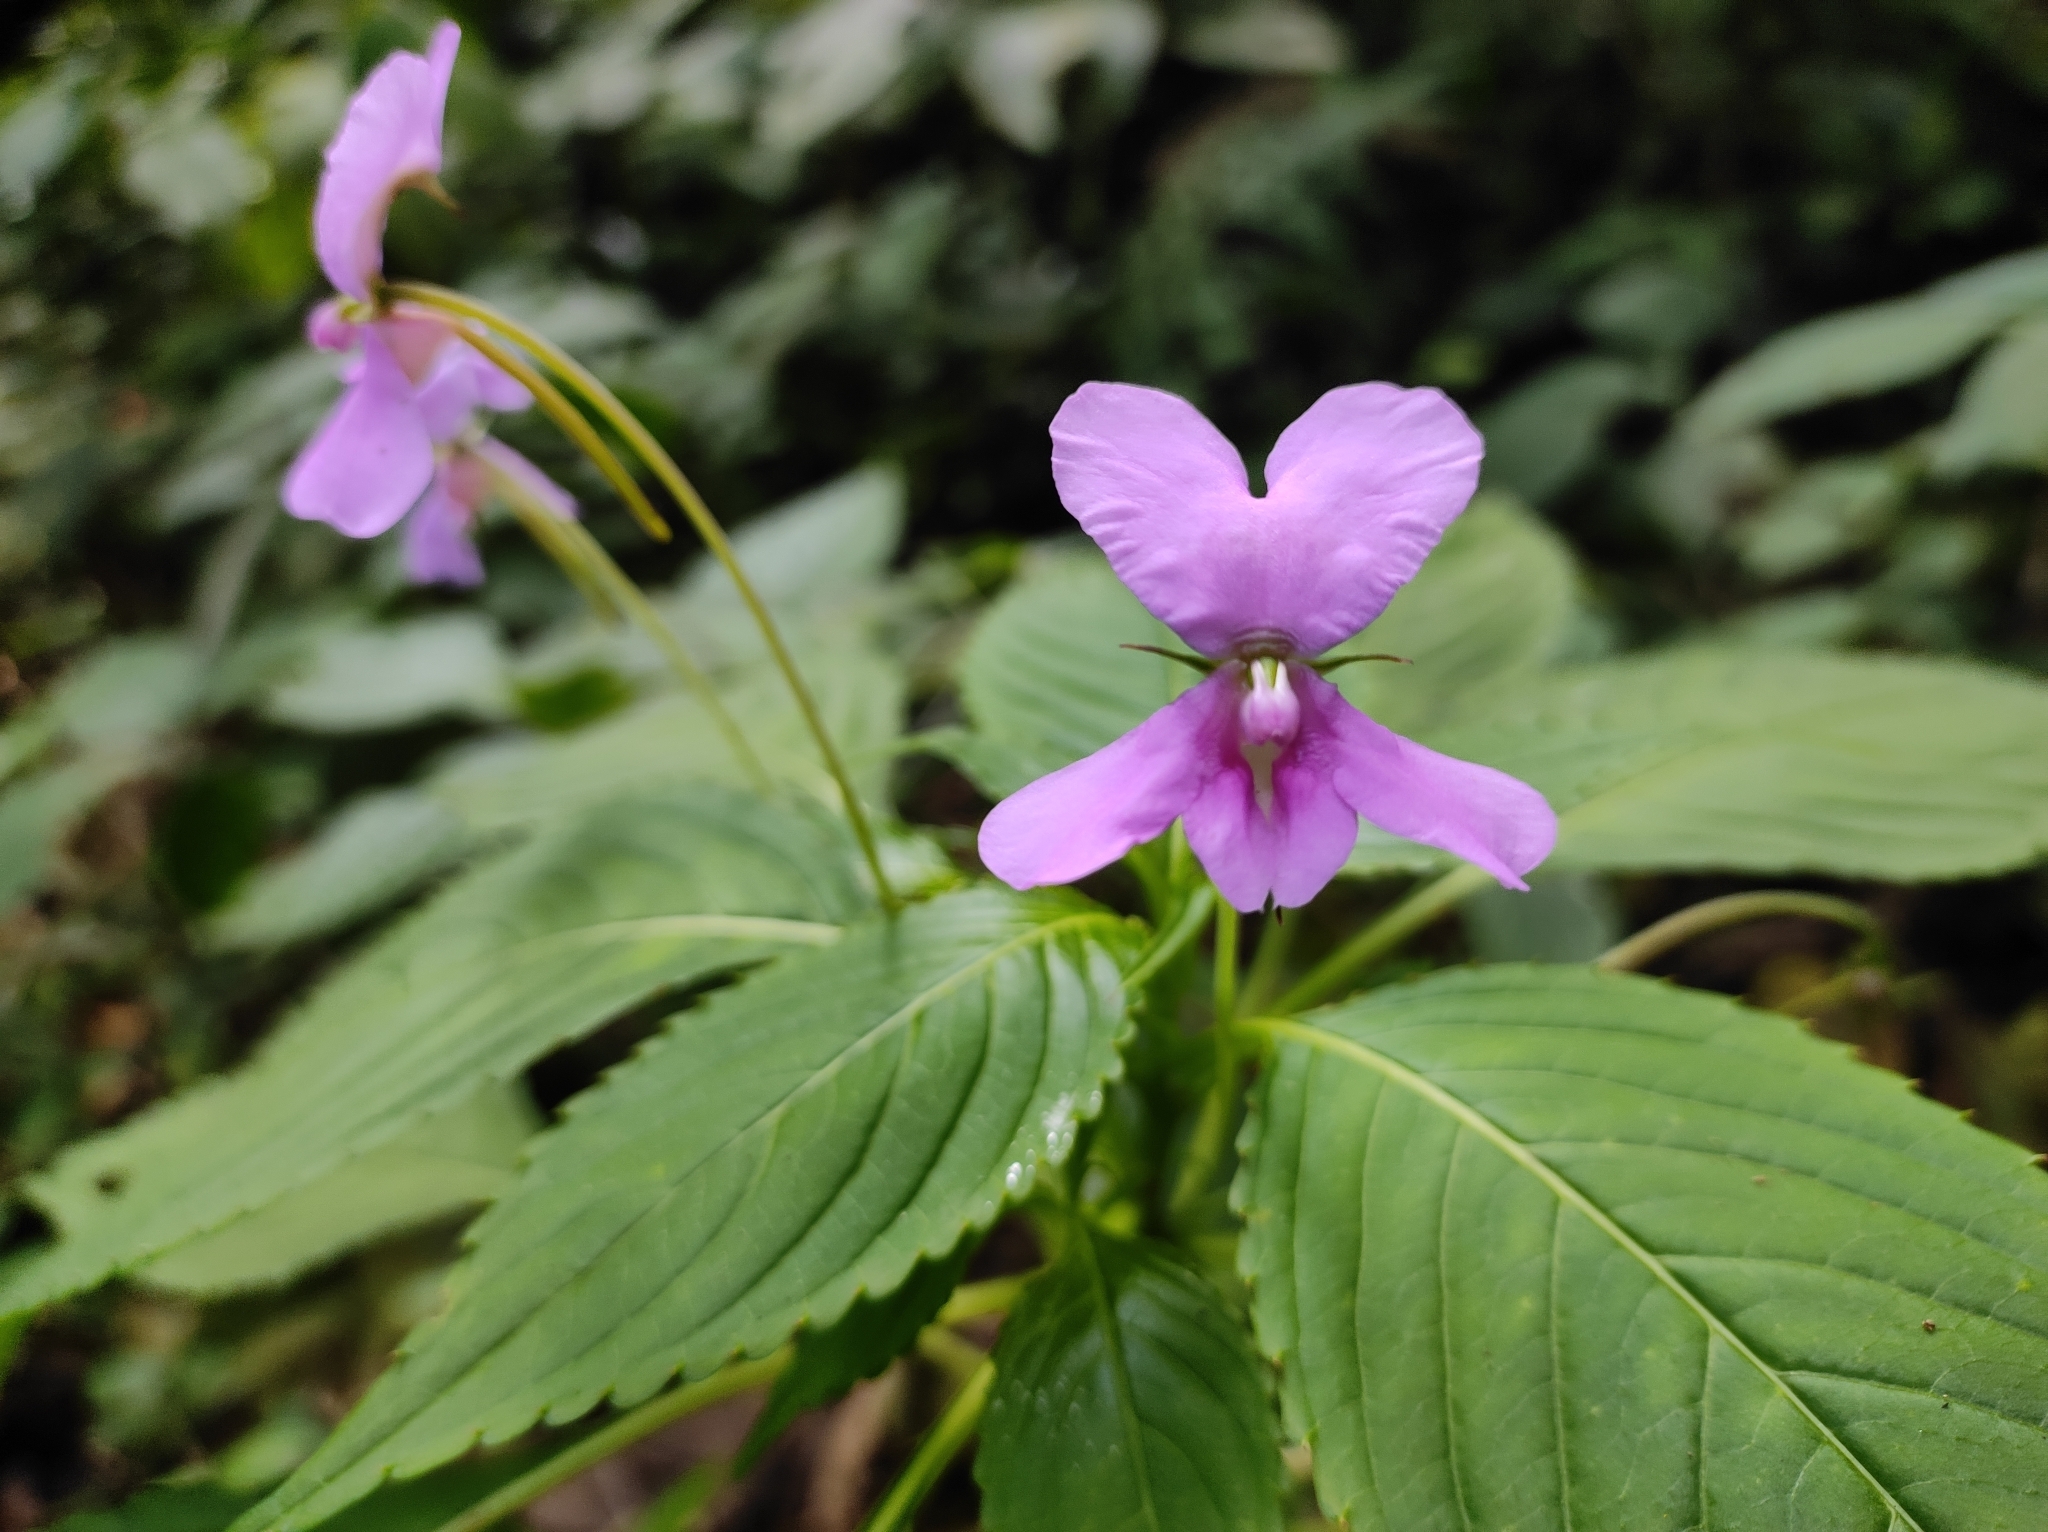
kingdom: Plantae
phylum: Tracheophyta
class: Magnoliopsida
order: Ericales
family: Balsaminaceae
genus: Impatiens
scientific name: Impatiens macrocarpa
